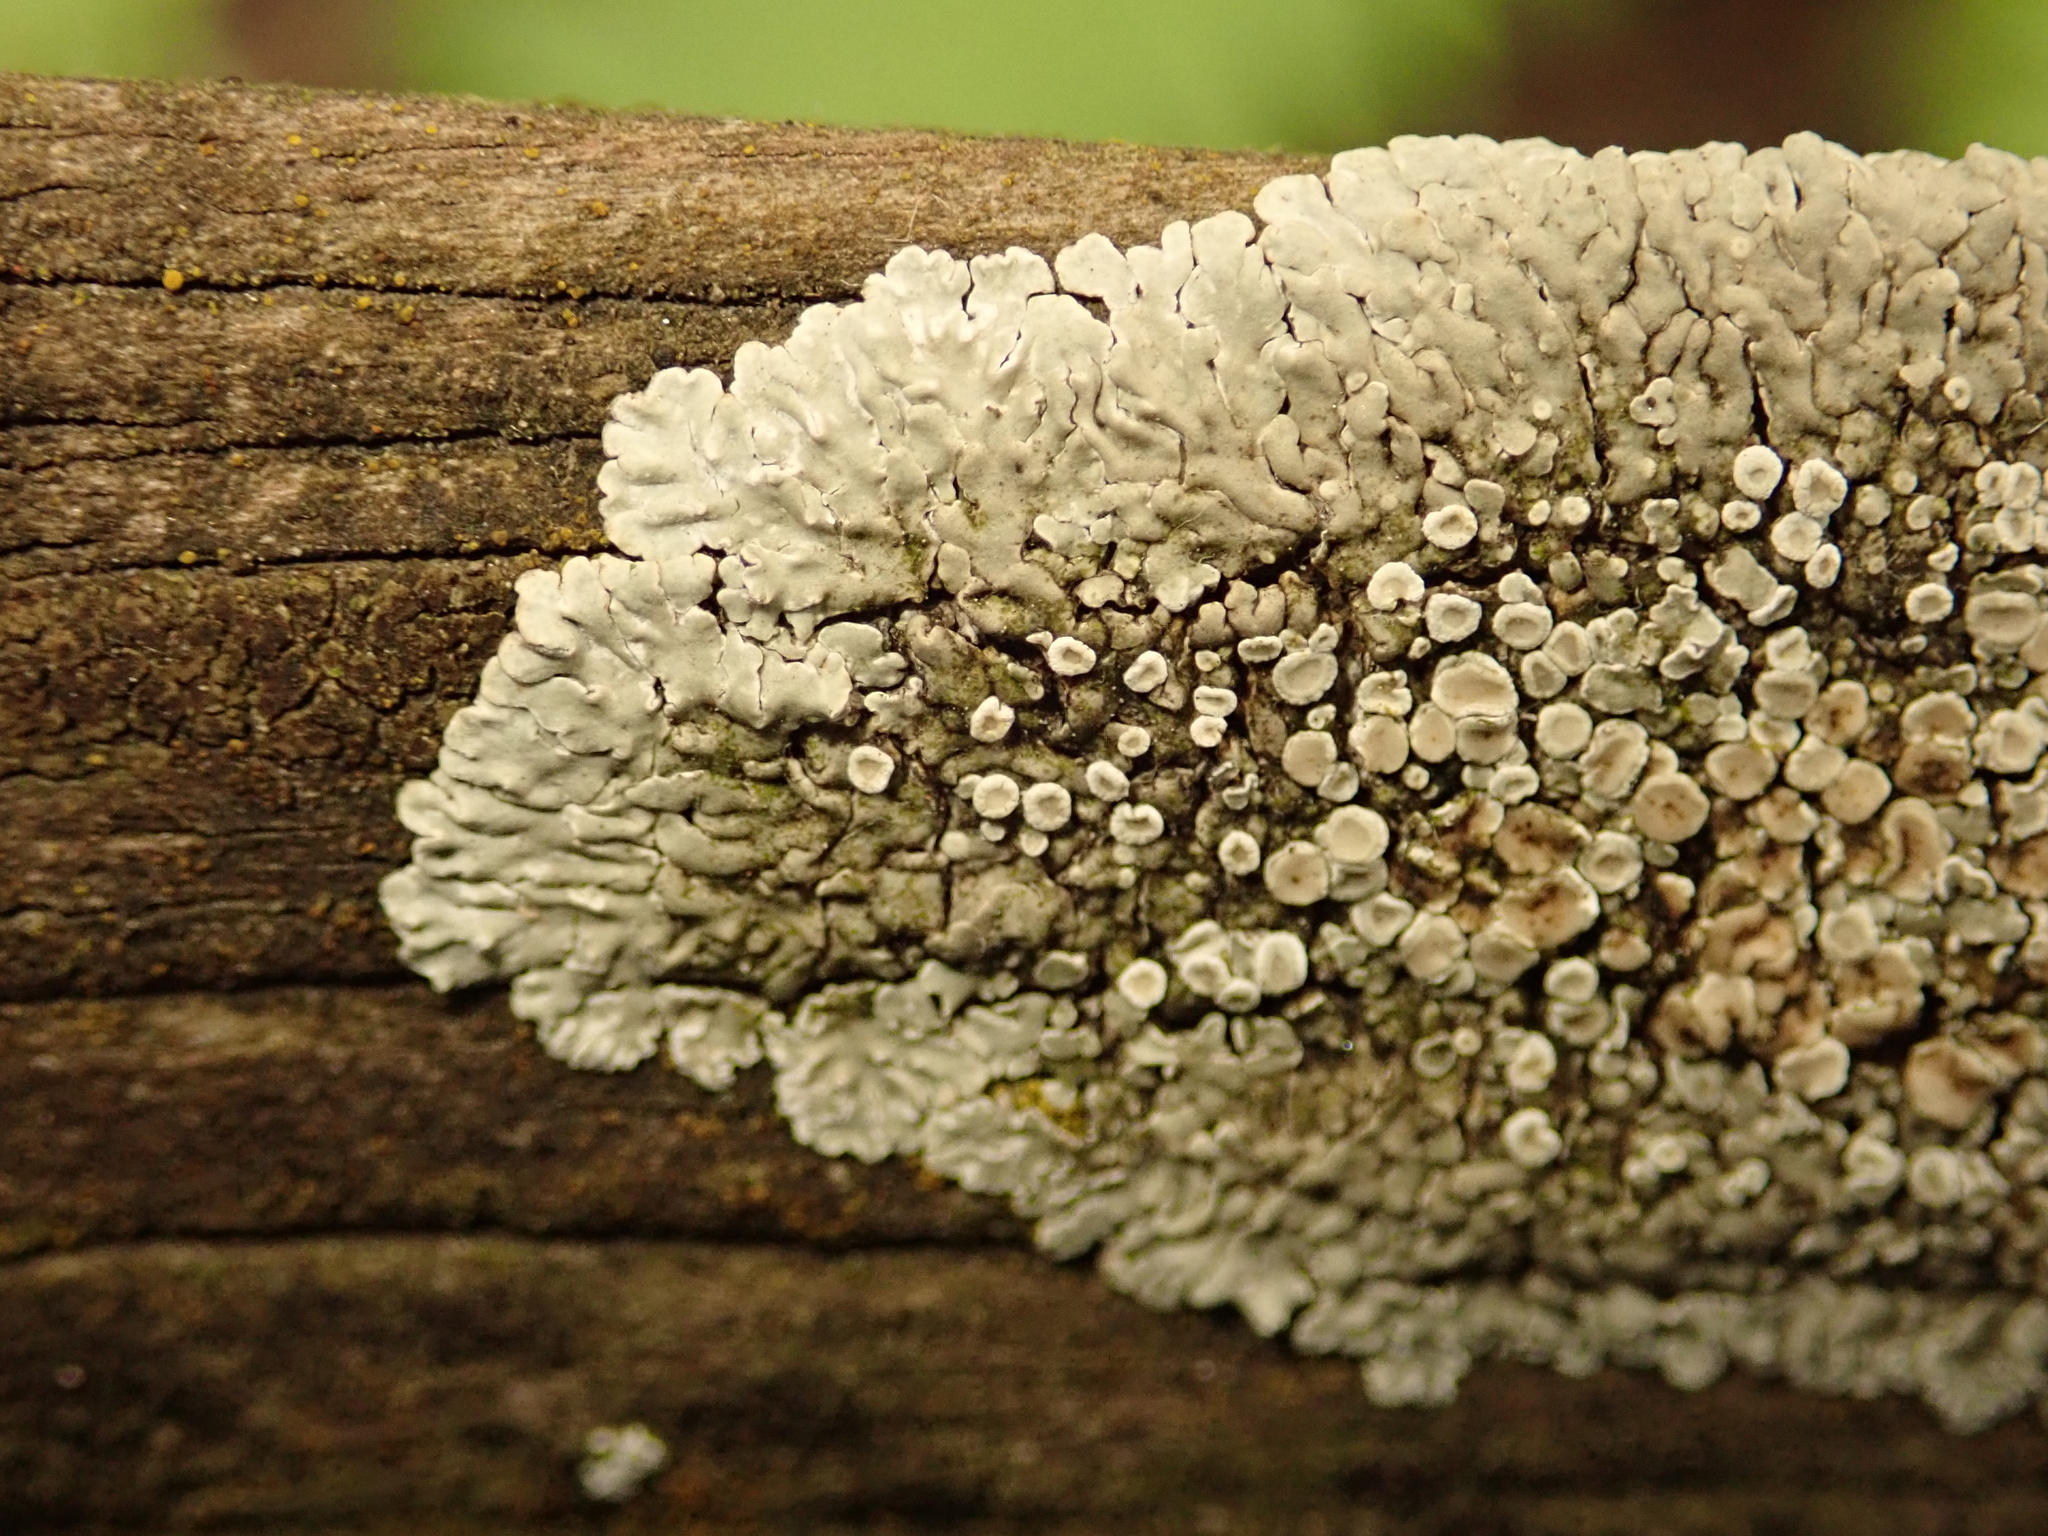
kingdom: Fungi
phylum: Ascomycota
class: Lecanoromycetes
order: Lecanorales
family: Lecanoraceae
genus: Protoparmeliopsis
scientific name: Protoparmeliopsis muralis
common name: Stonewall rim lichen
